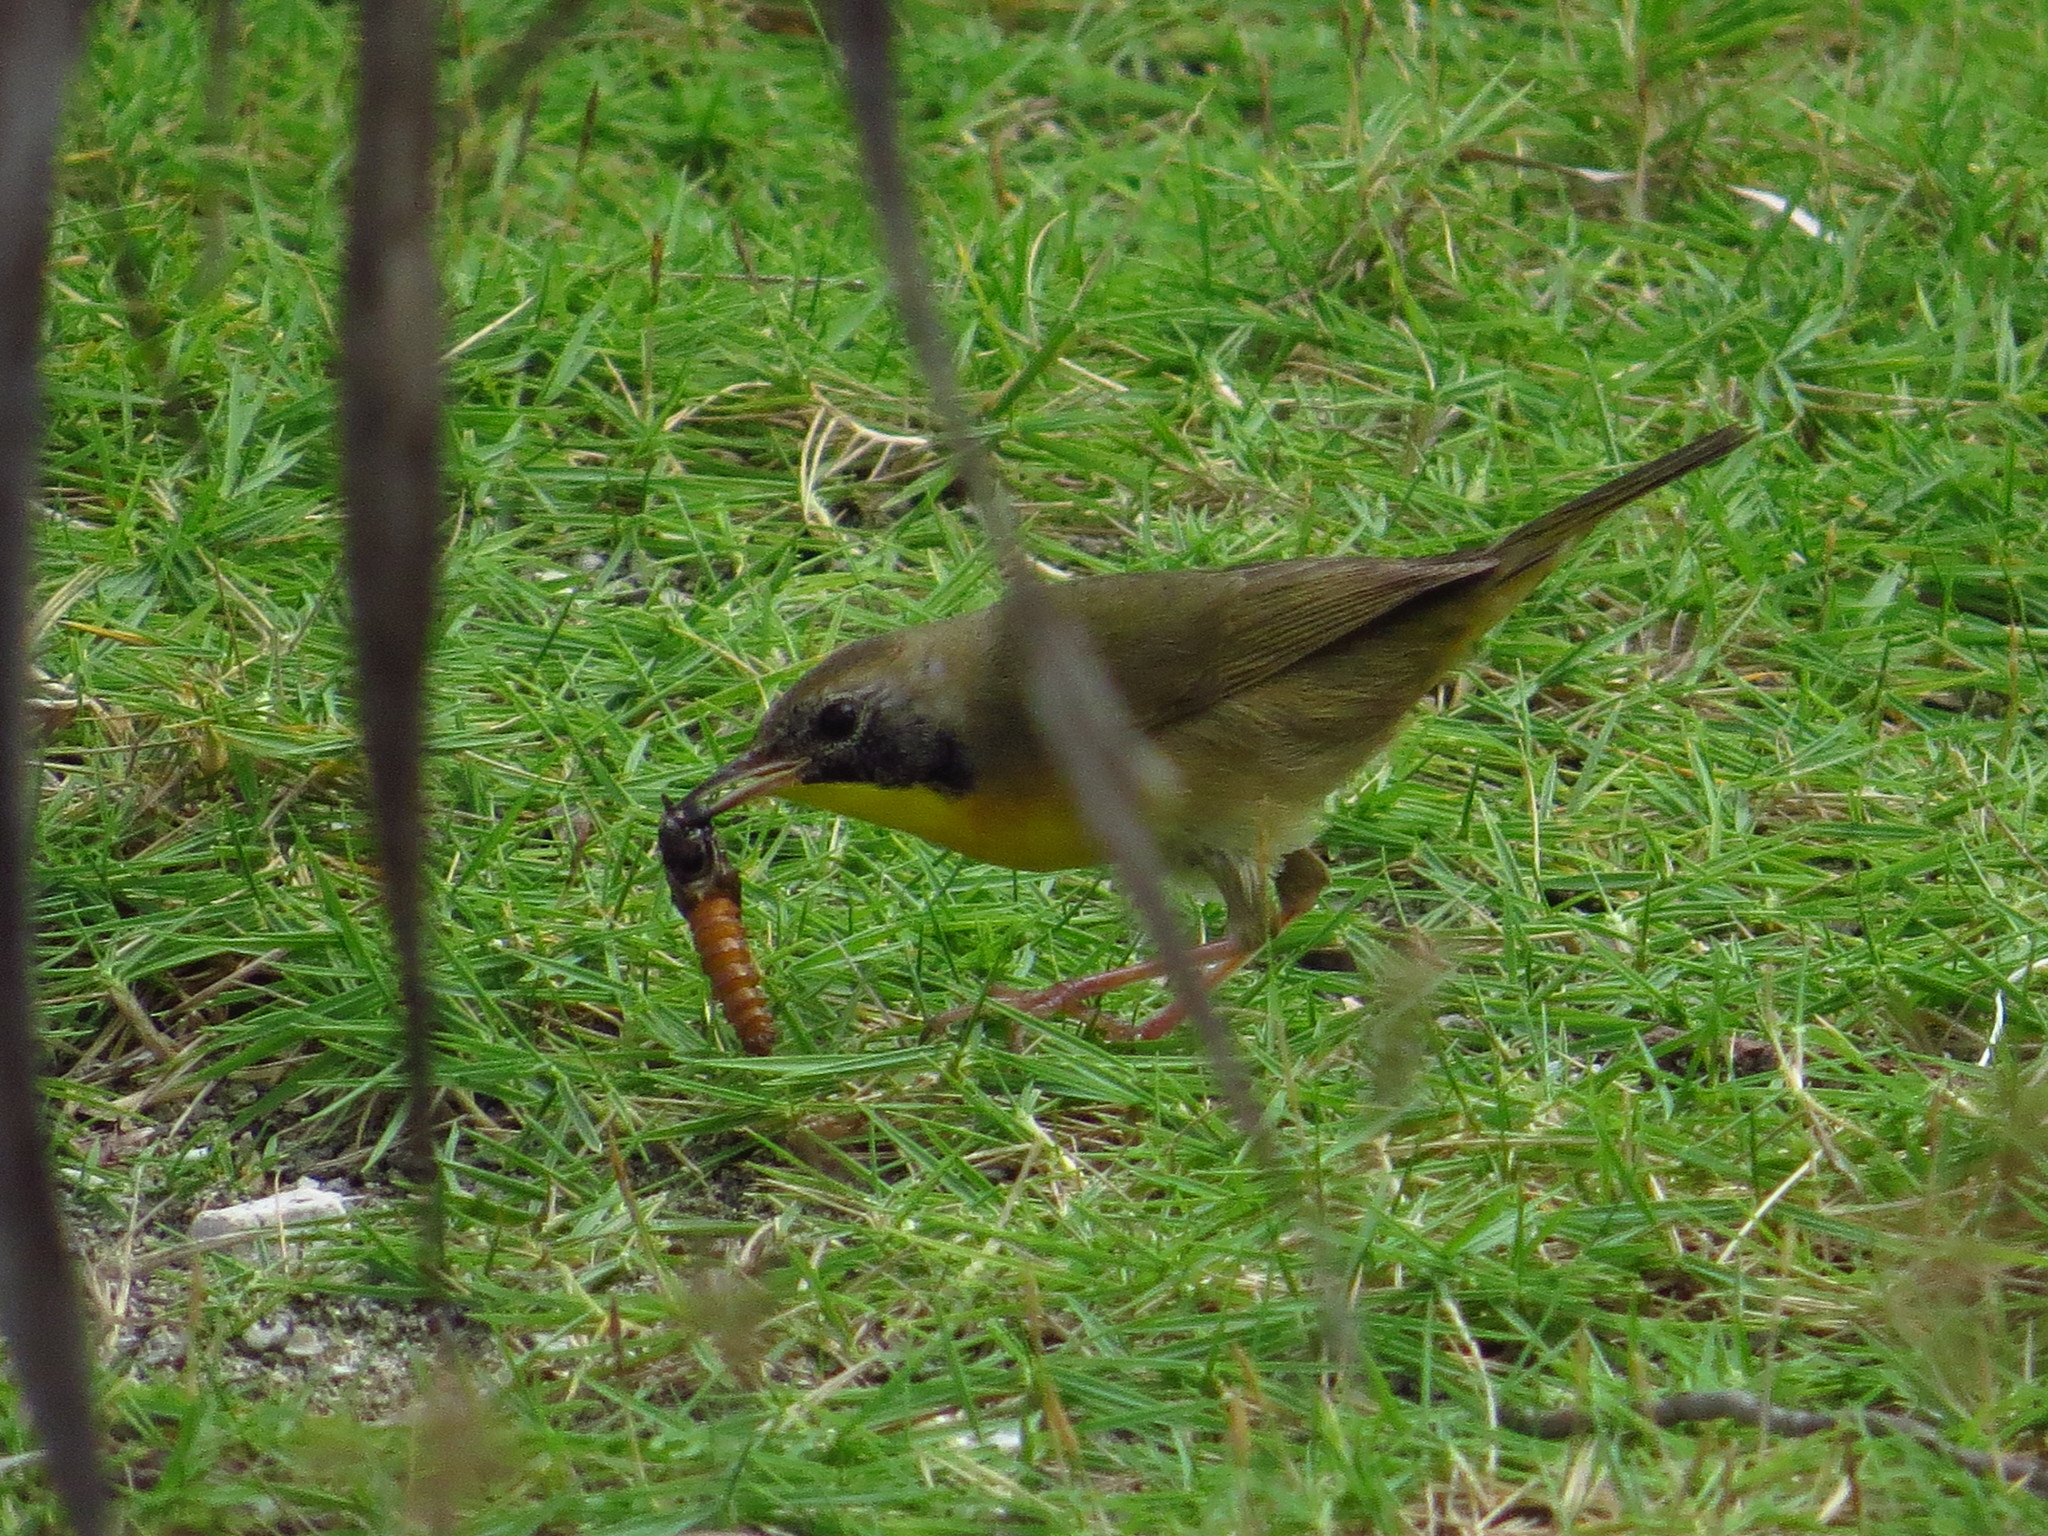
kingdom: Animalia
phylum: Chordata
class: Aves
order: Passeriformes
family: Parulidae
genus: Geothlypis
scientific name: Geothlypis trichas
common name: Common yellowthroat
